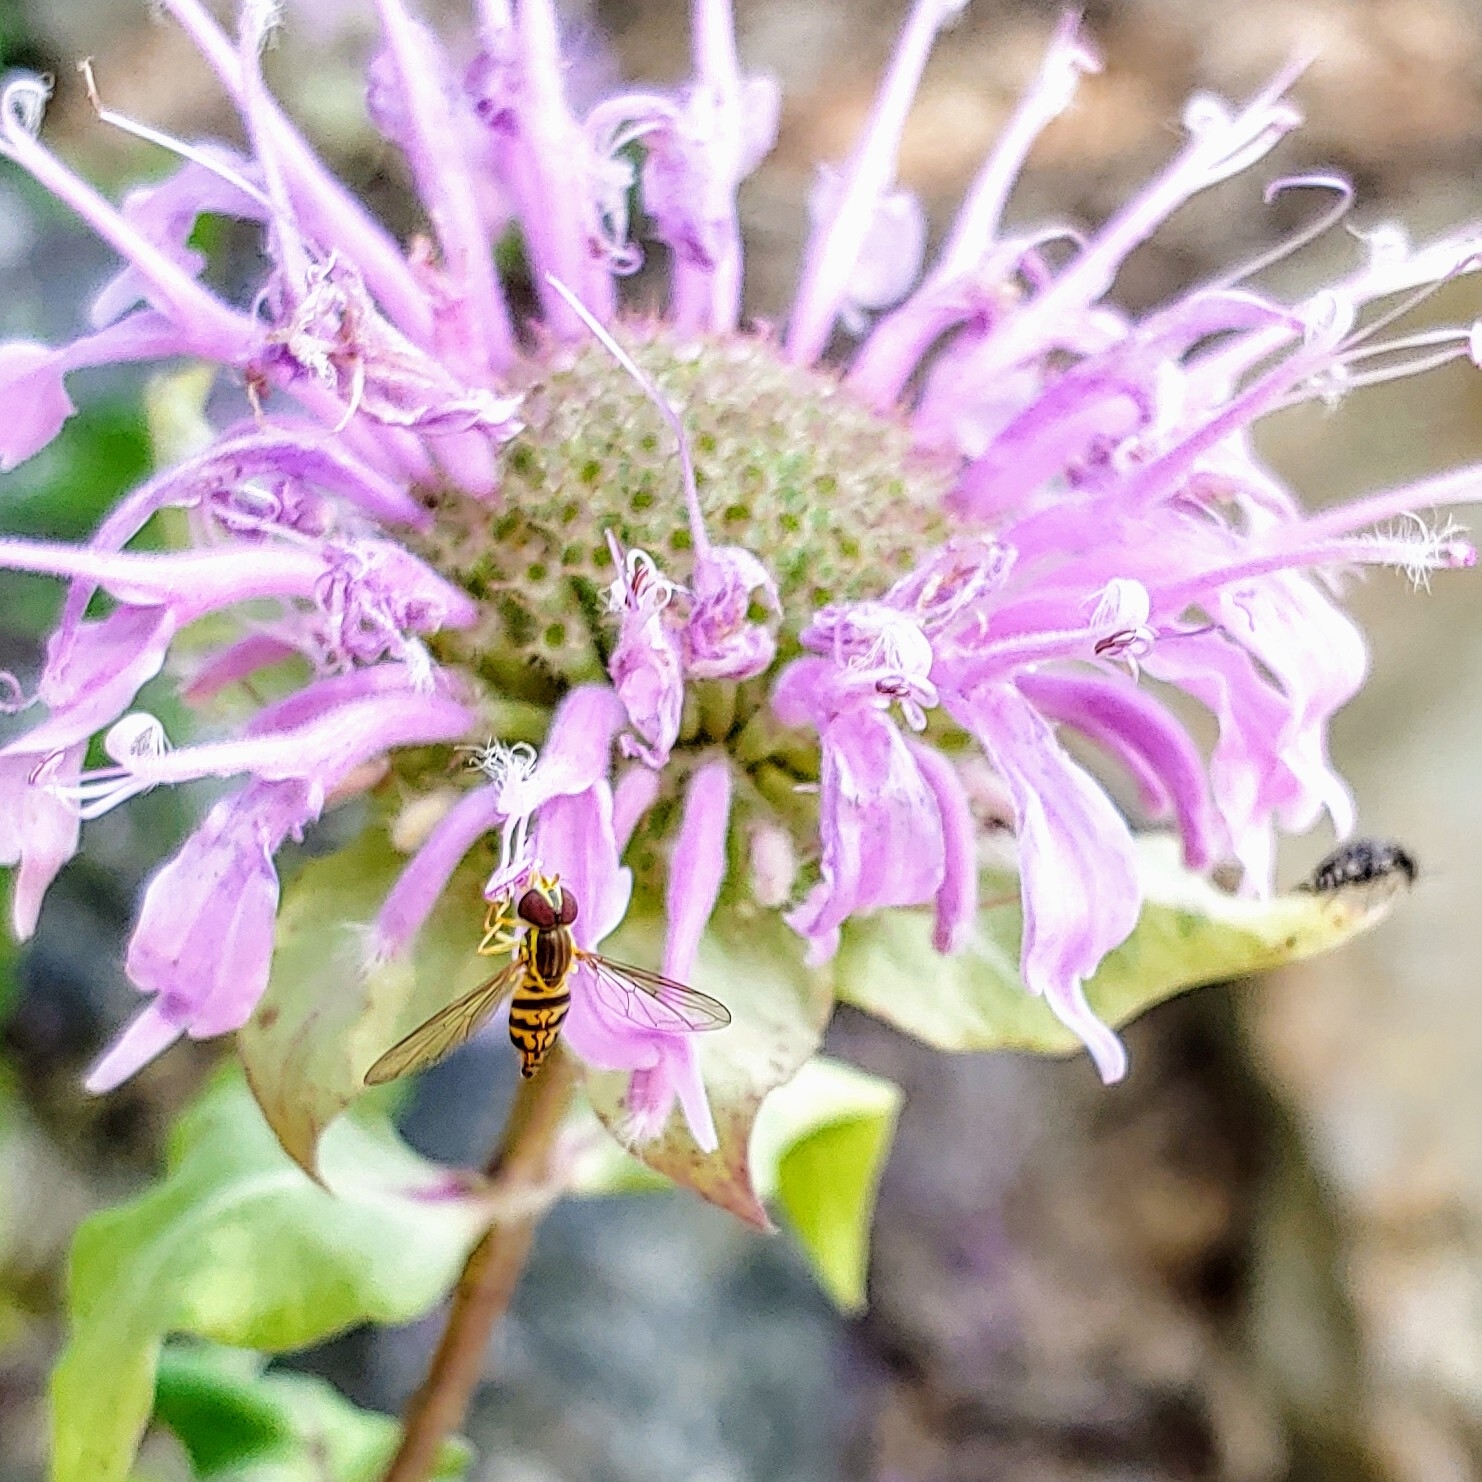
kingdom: Animalia
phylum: Arthropoda
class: Insecta
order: Diptera
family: Syrphidae
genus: Toxomerus
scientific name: Toxomerus geminatus
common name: Eastern calligrapher
